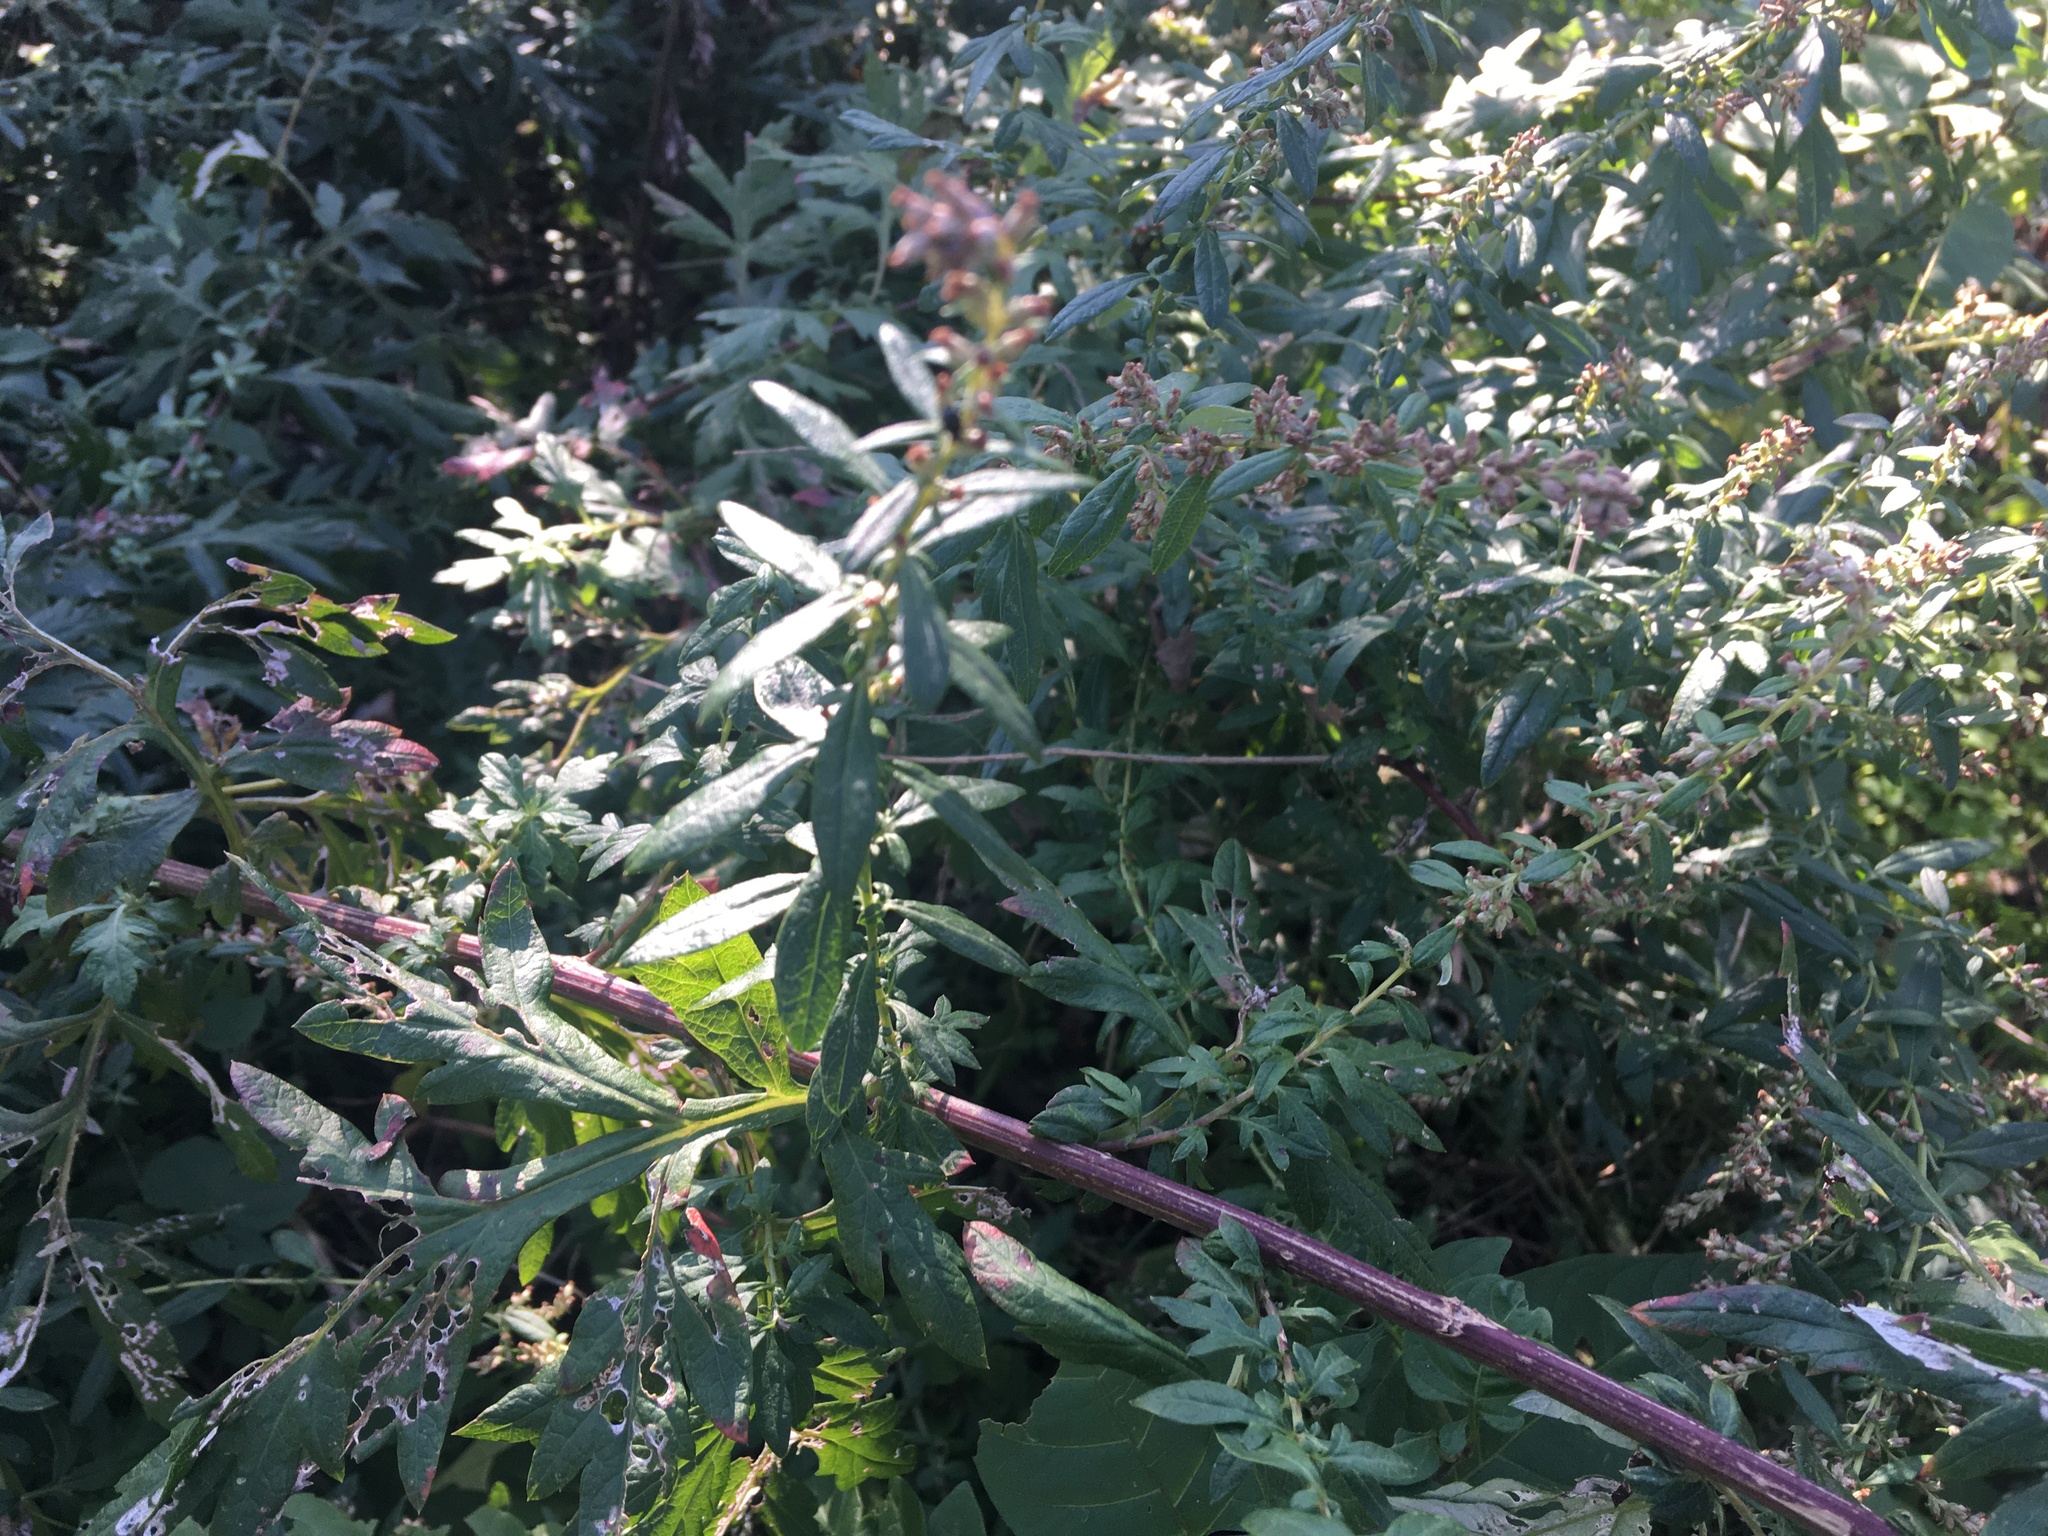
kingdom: Plantae
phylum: Tracheophyta
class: Magnoliopsida
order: Asterales
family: Asteraceae
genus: Artemisia
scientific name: Artemisia vulgaris
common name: Mugwort
